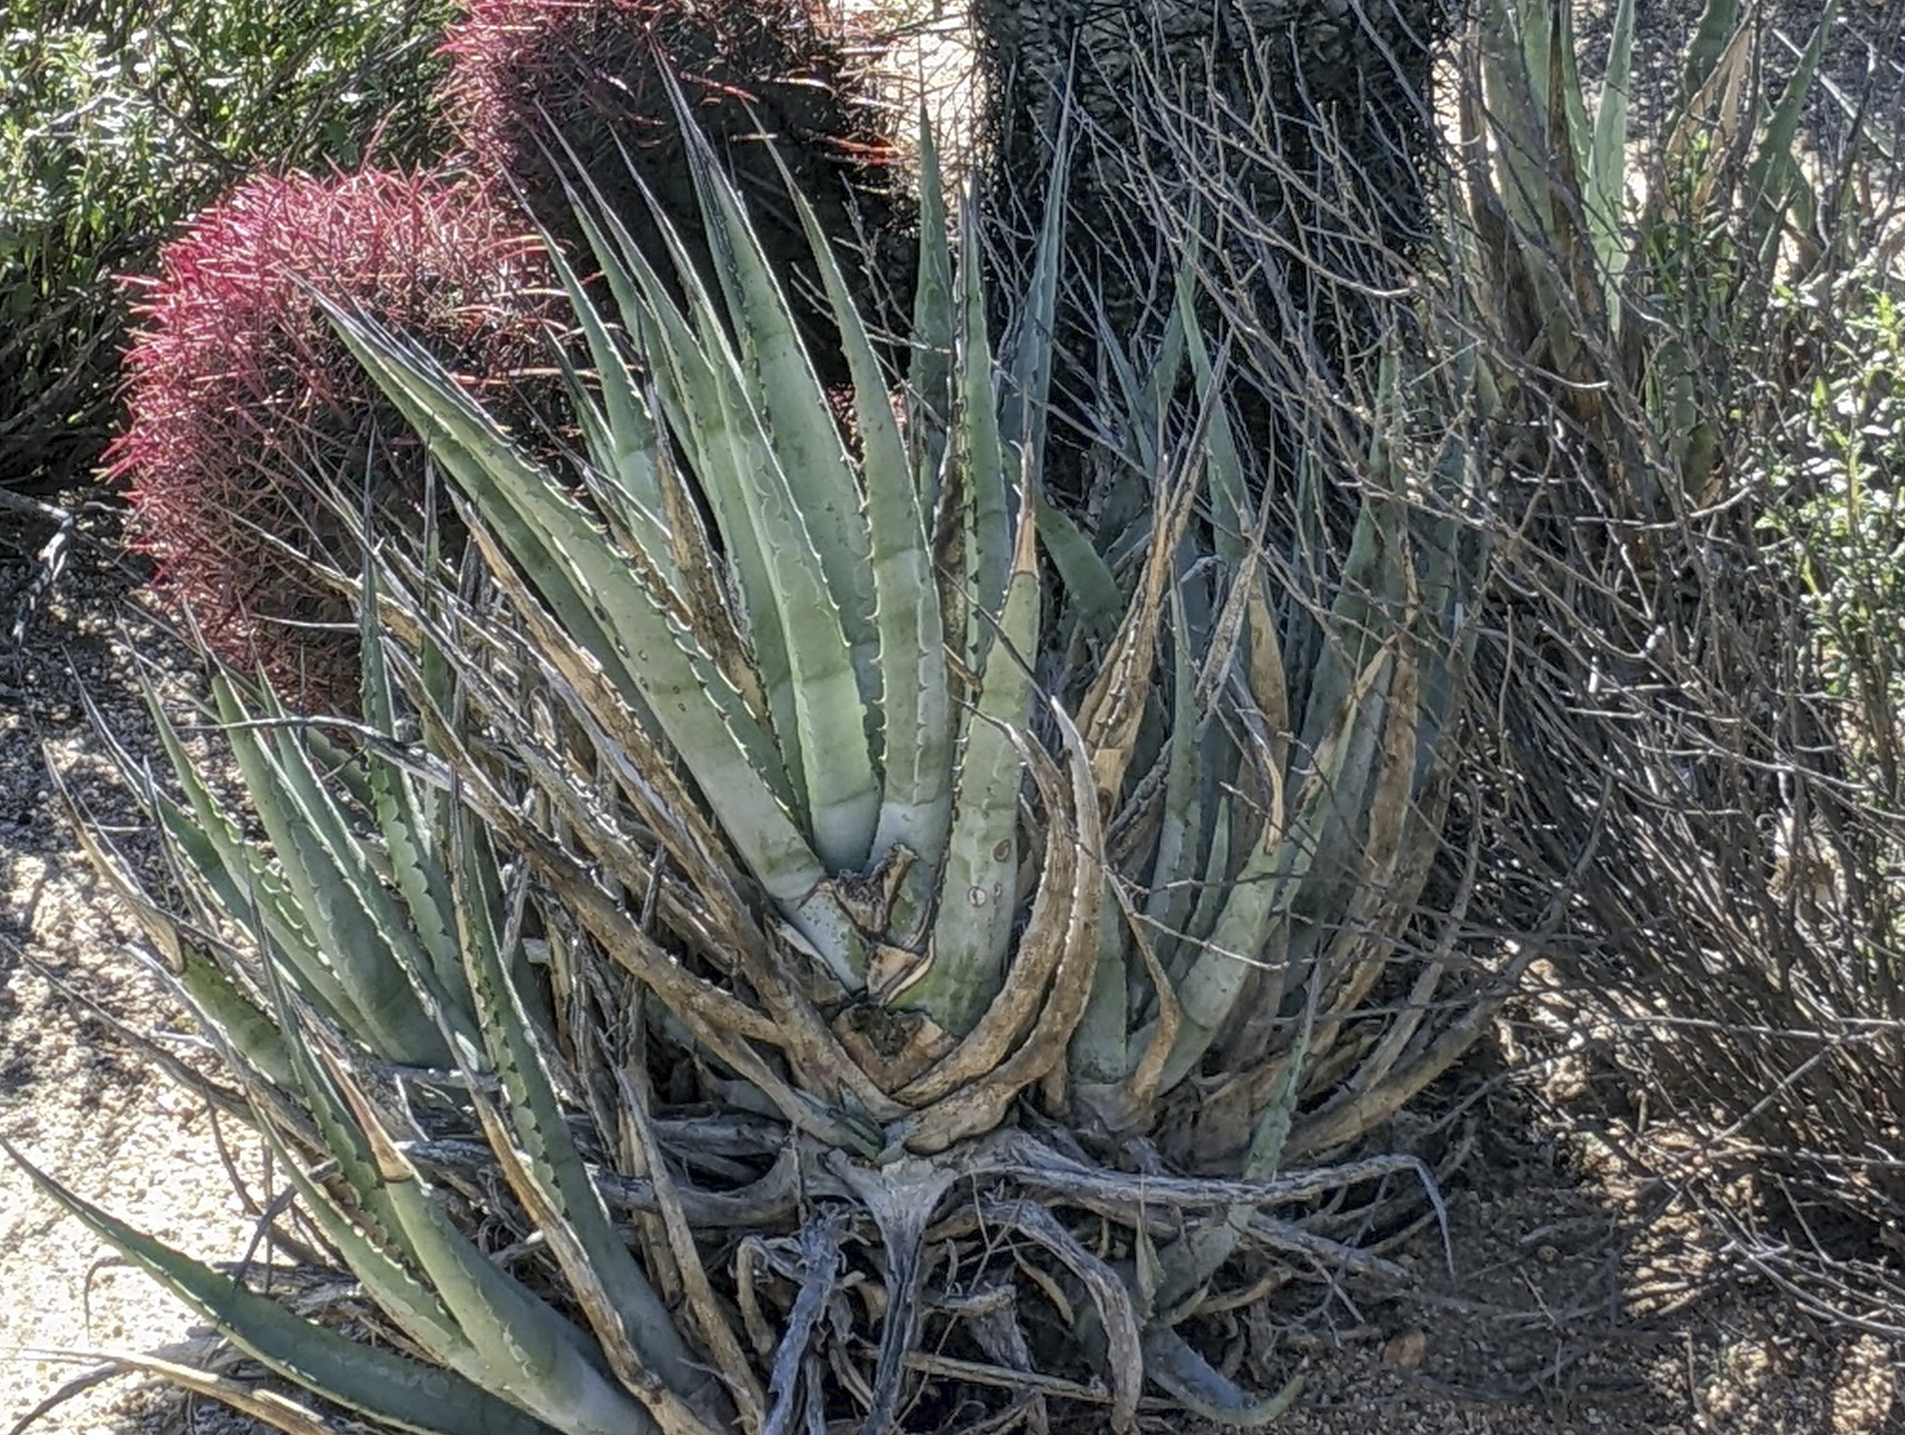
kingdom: Plantae
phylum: Tracheophyta
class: Liliopsida
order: Asparagales
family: Asparagaceae
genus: Agave
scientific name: Agave cerulata
